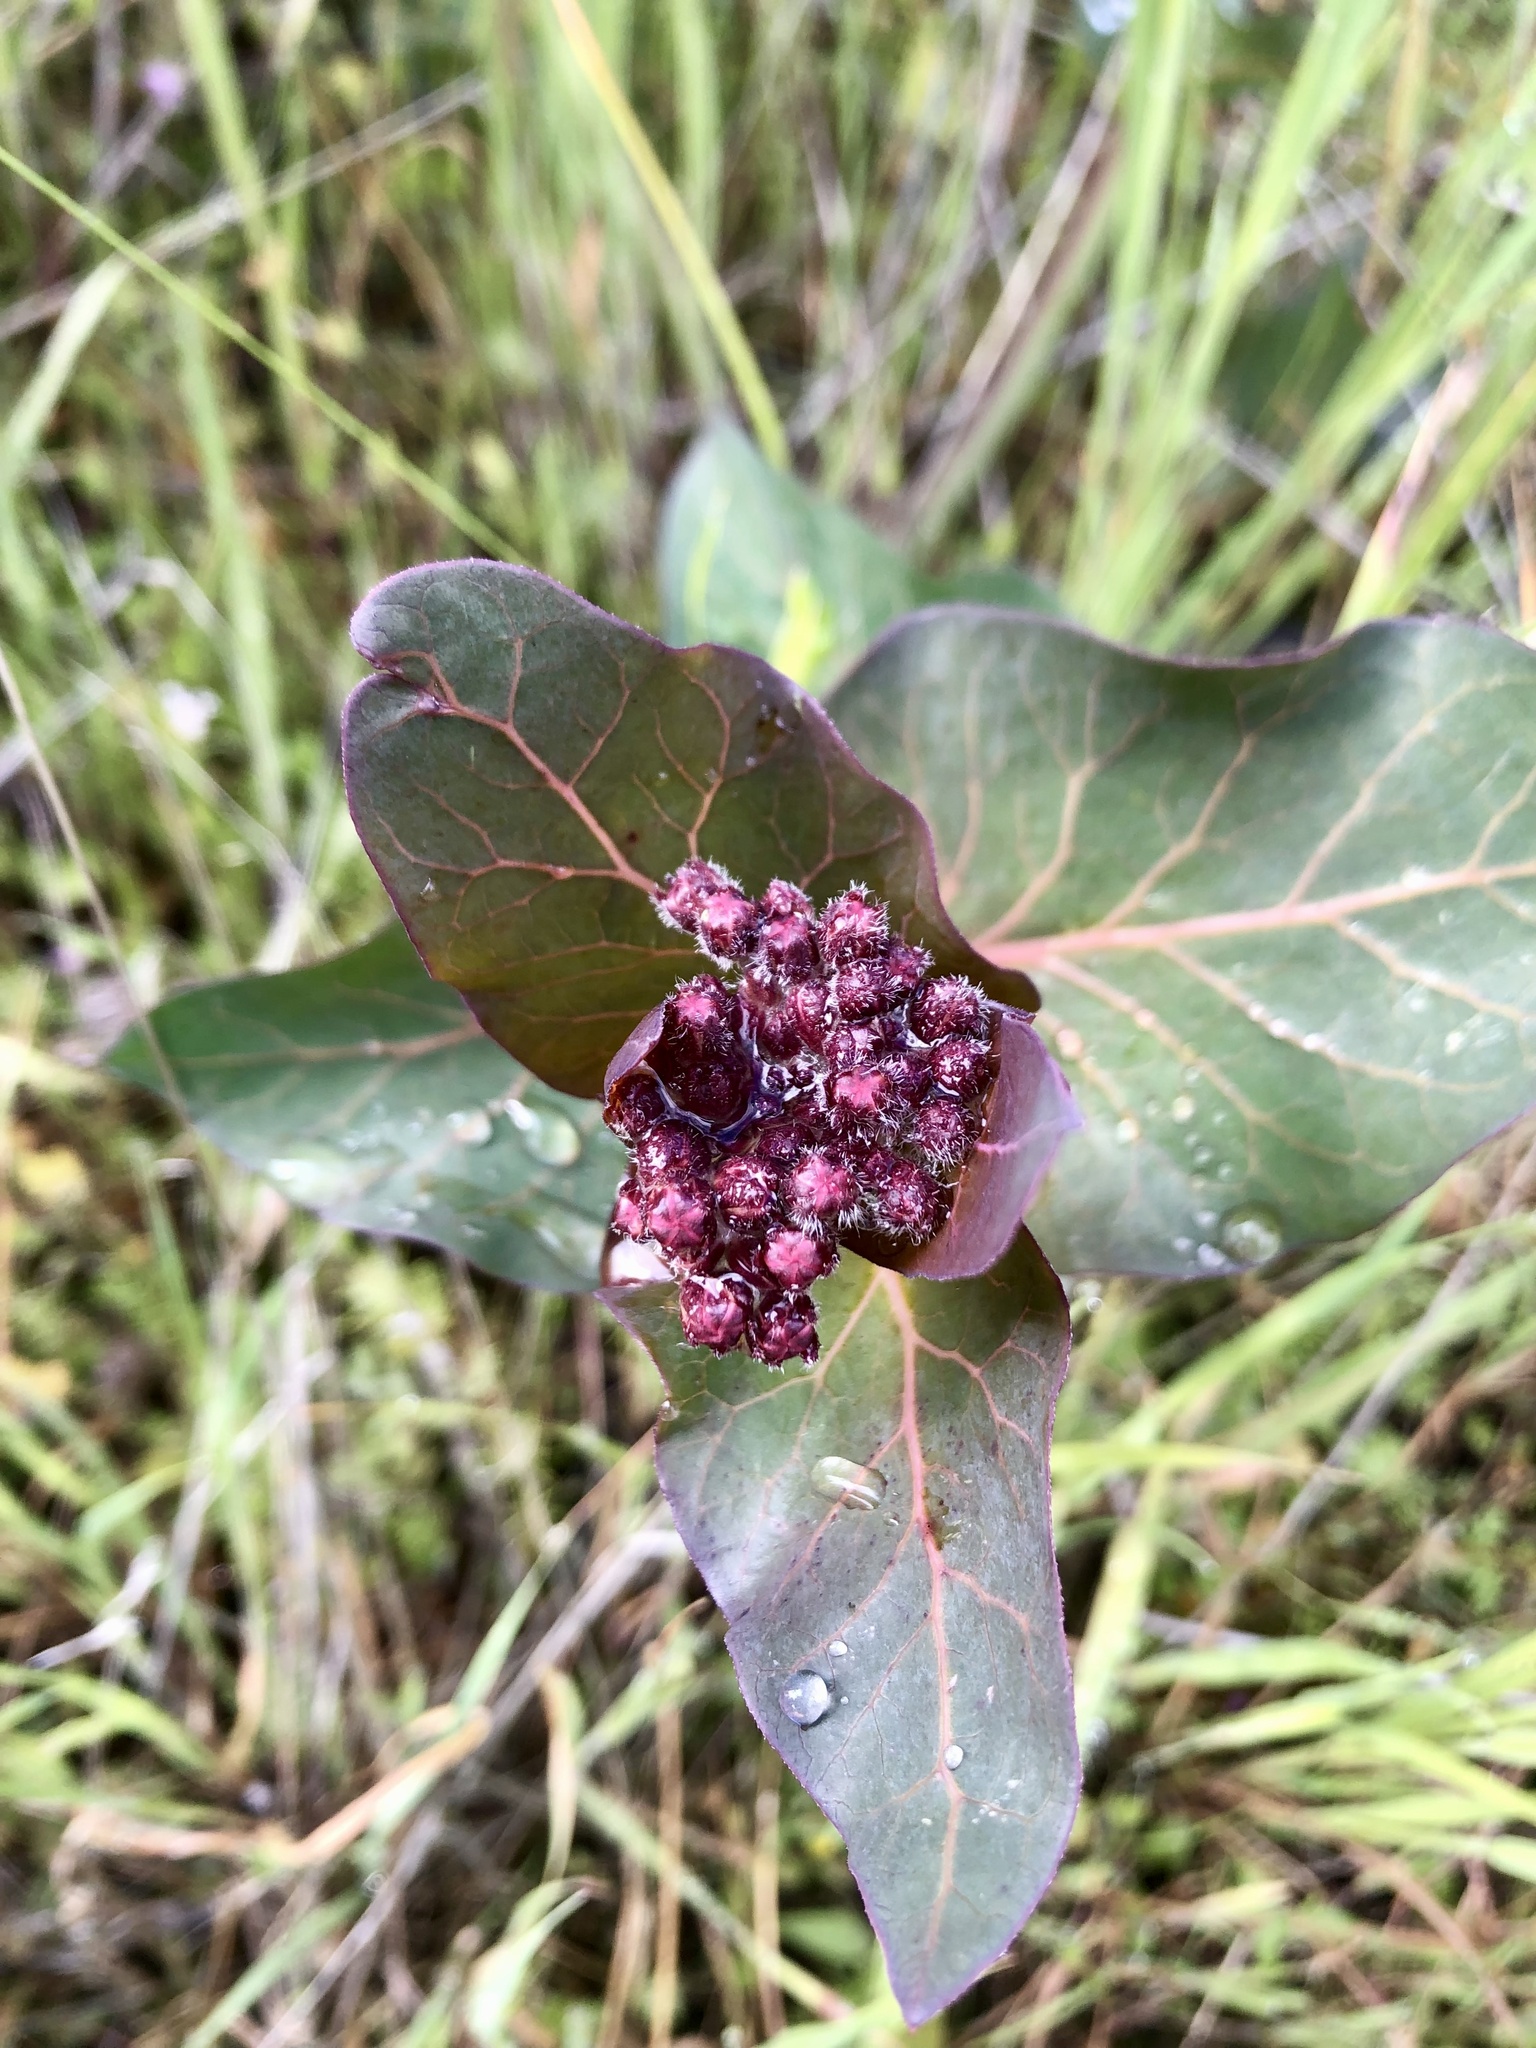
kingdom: Plantae
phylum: Tracheophyta
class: Magnoliopsida
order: Gentianales
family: Apocynaceae
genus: Asclepias
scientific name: Asclepias cordifolia
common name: Purple milkweed
